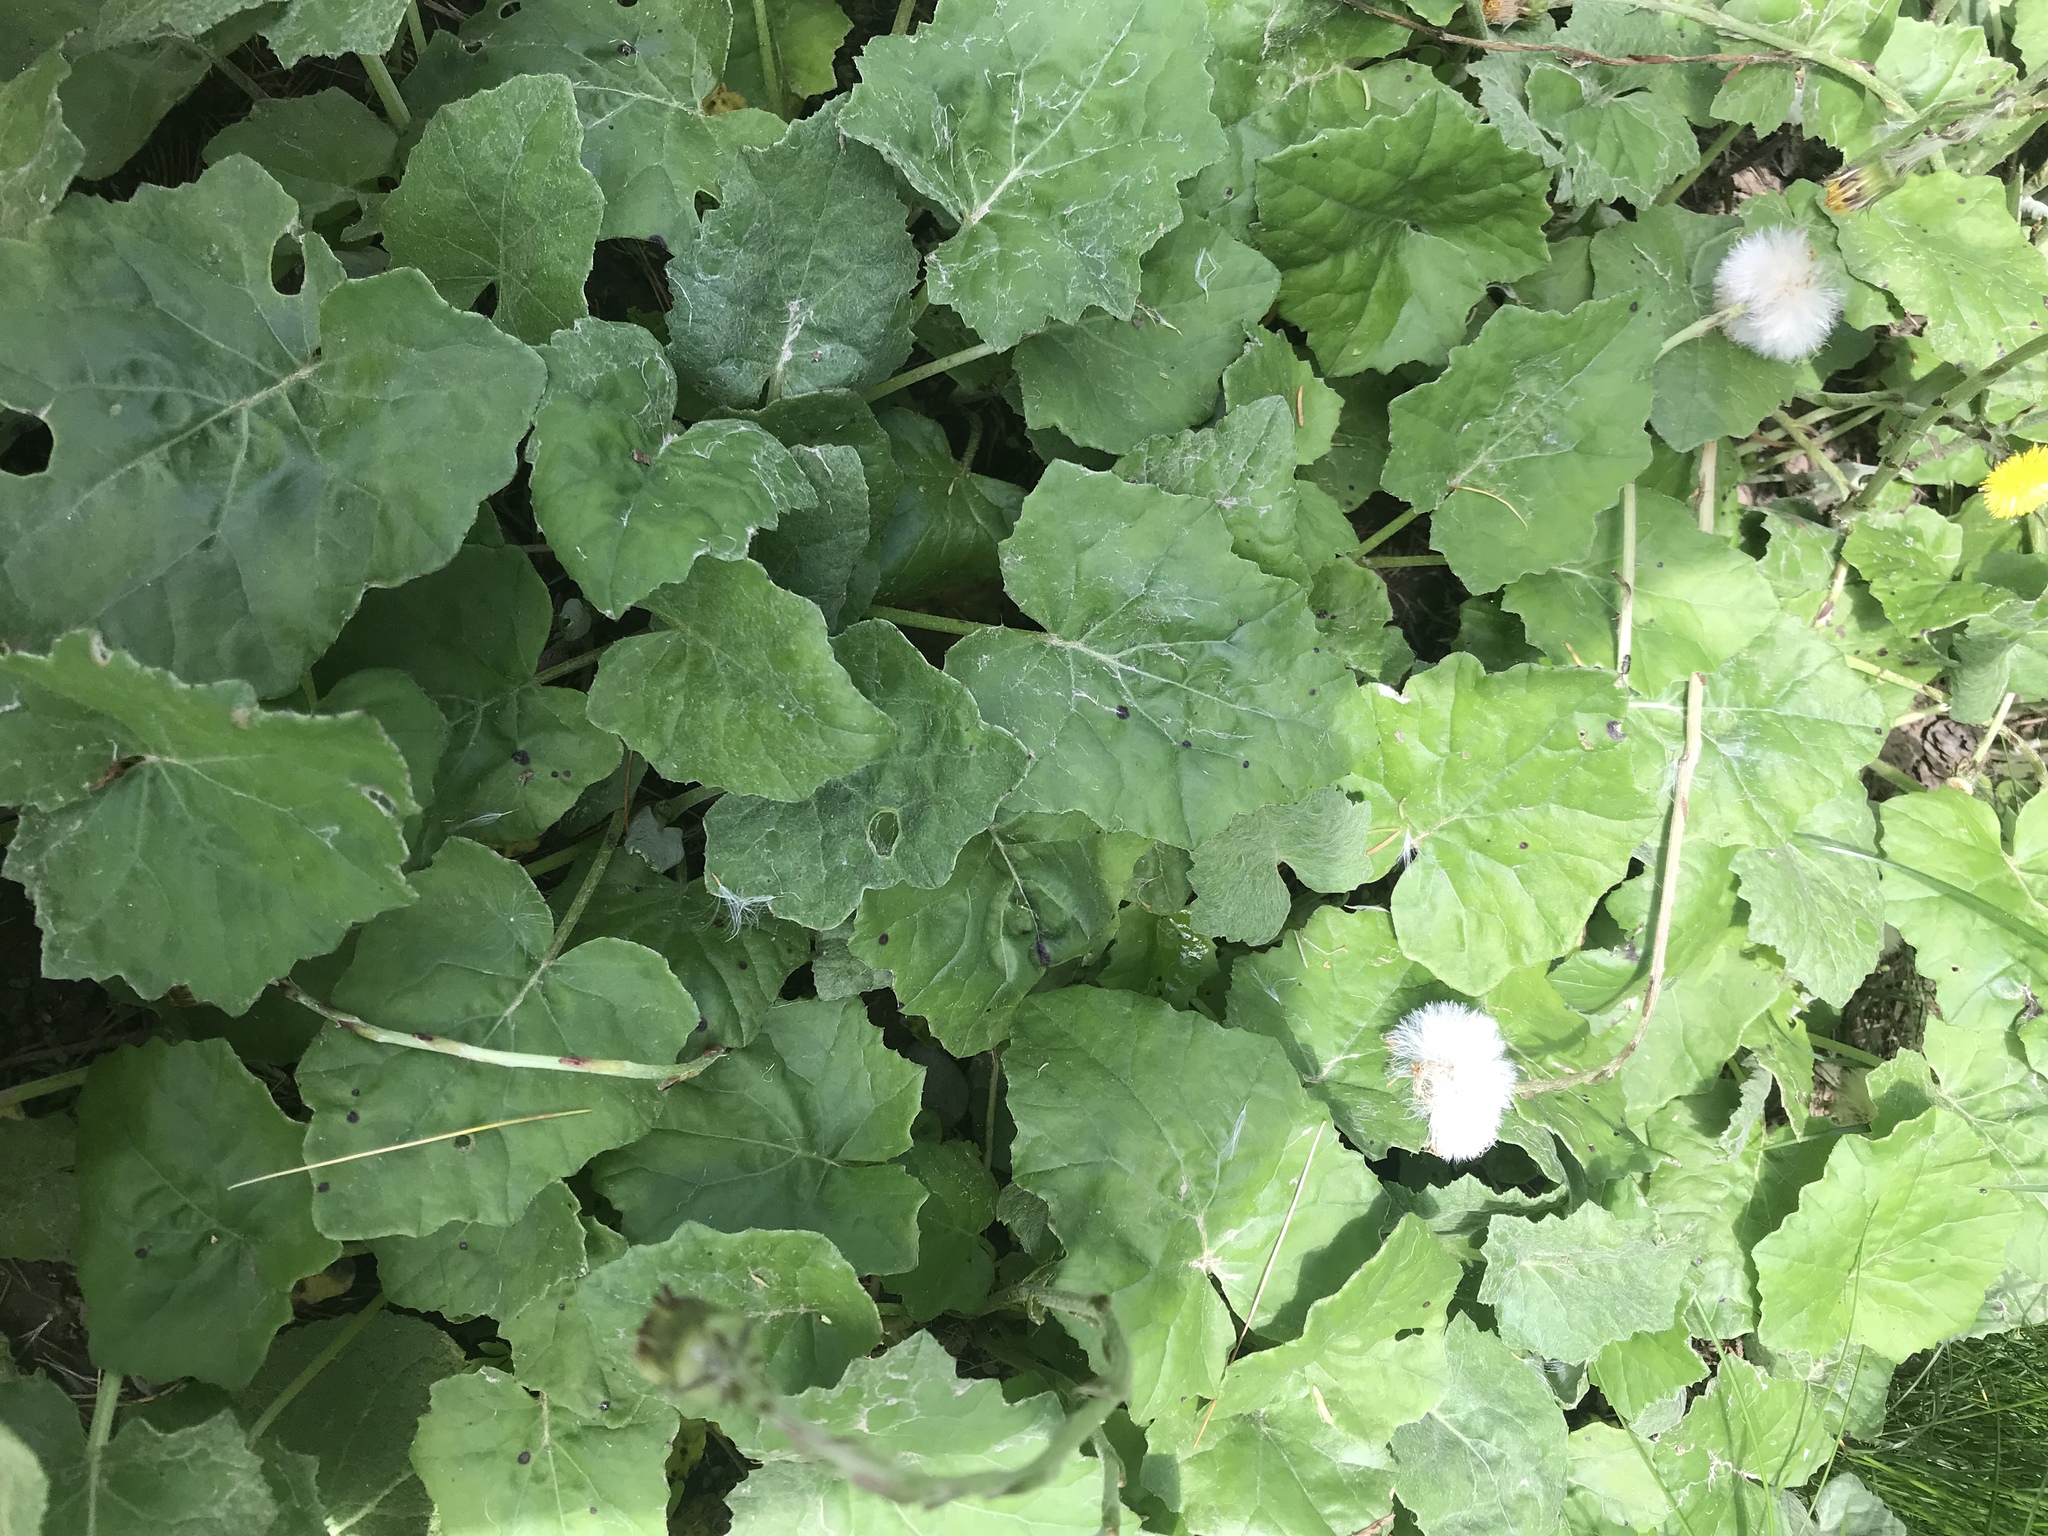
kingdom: Plantae
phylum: Tracheophyta
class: Magnoliopsida
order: Asterales
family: Asteraceae
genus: Tussilago
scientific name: Tussilago farfara
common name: Coltsfoot
